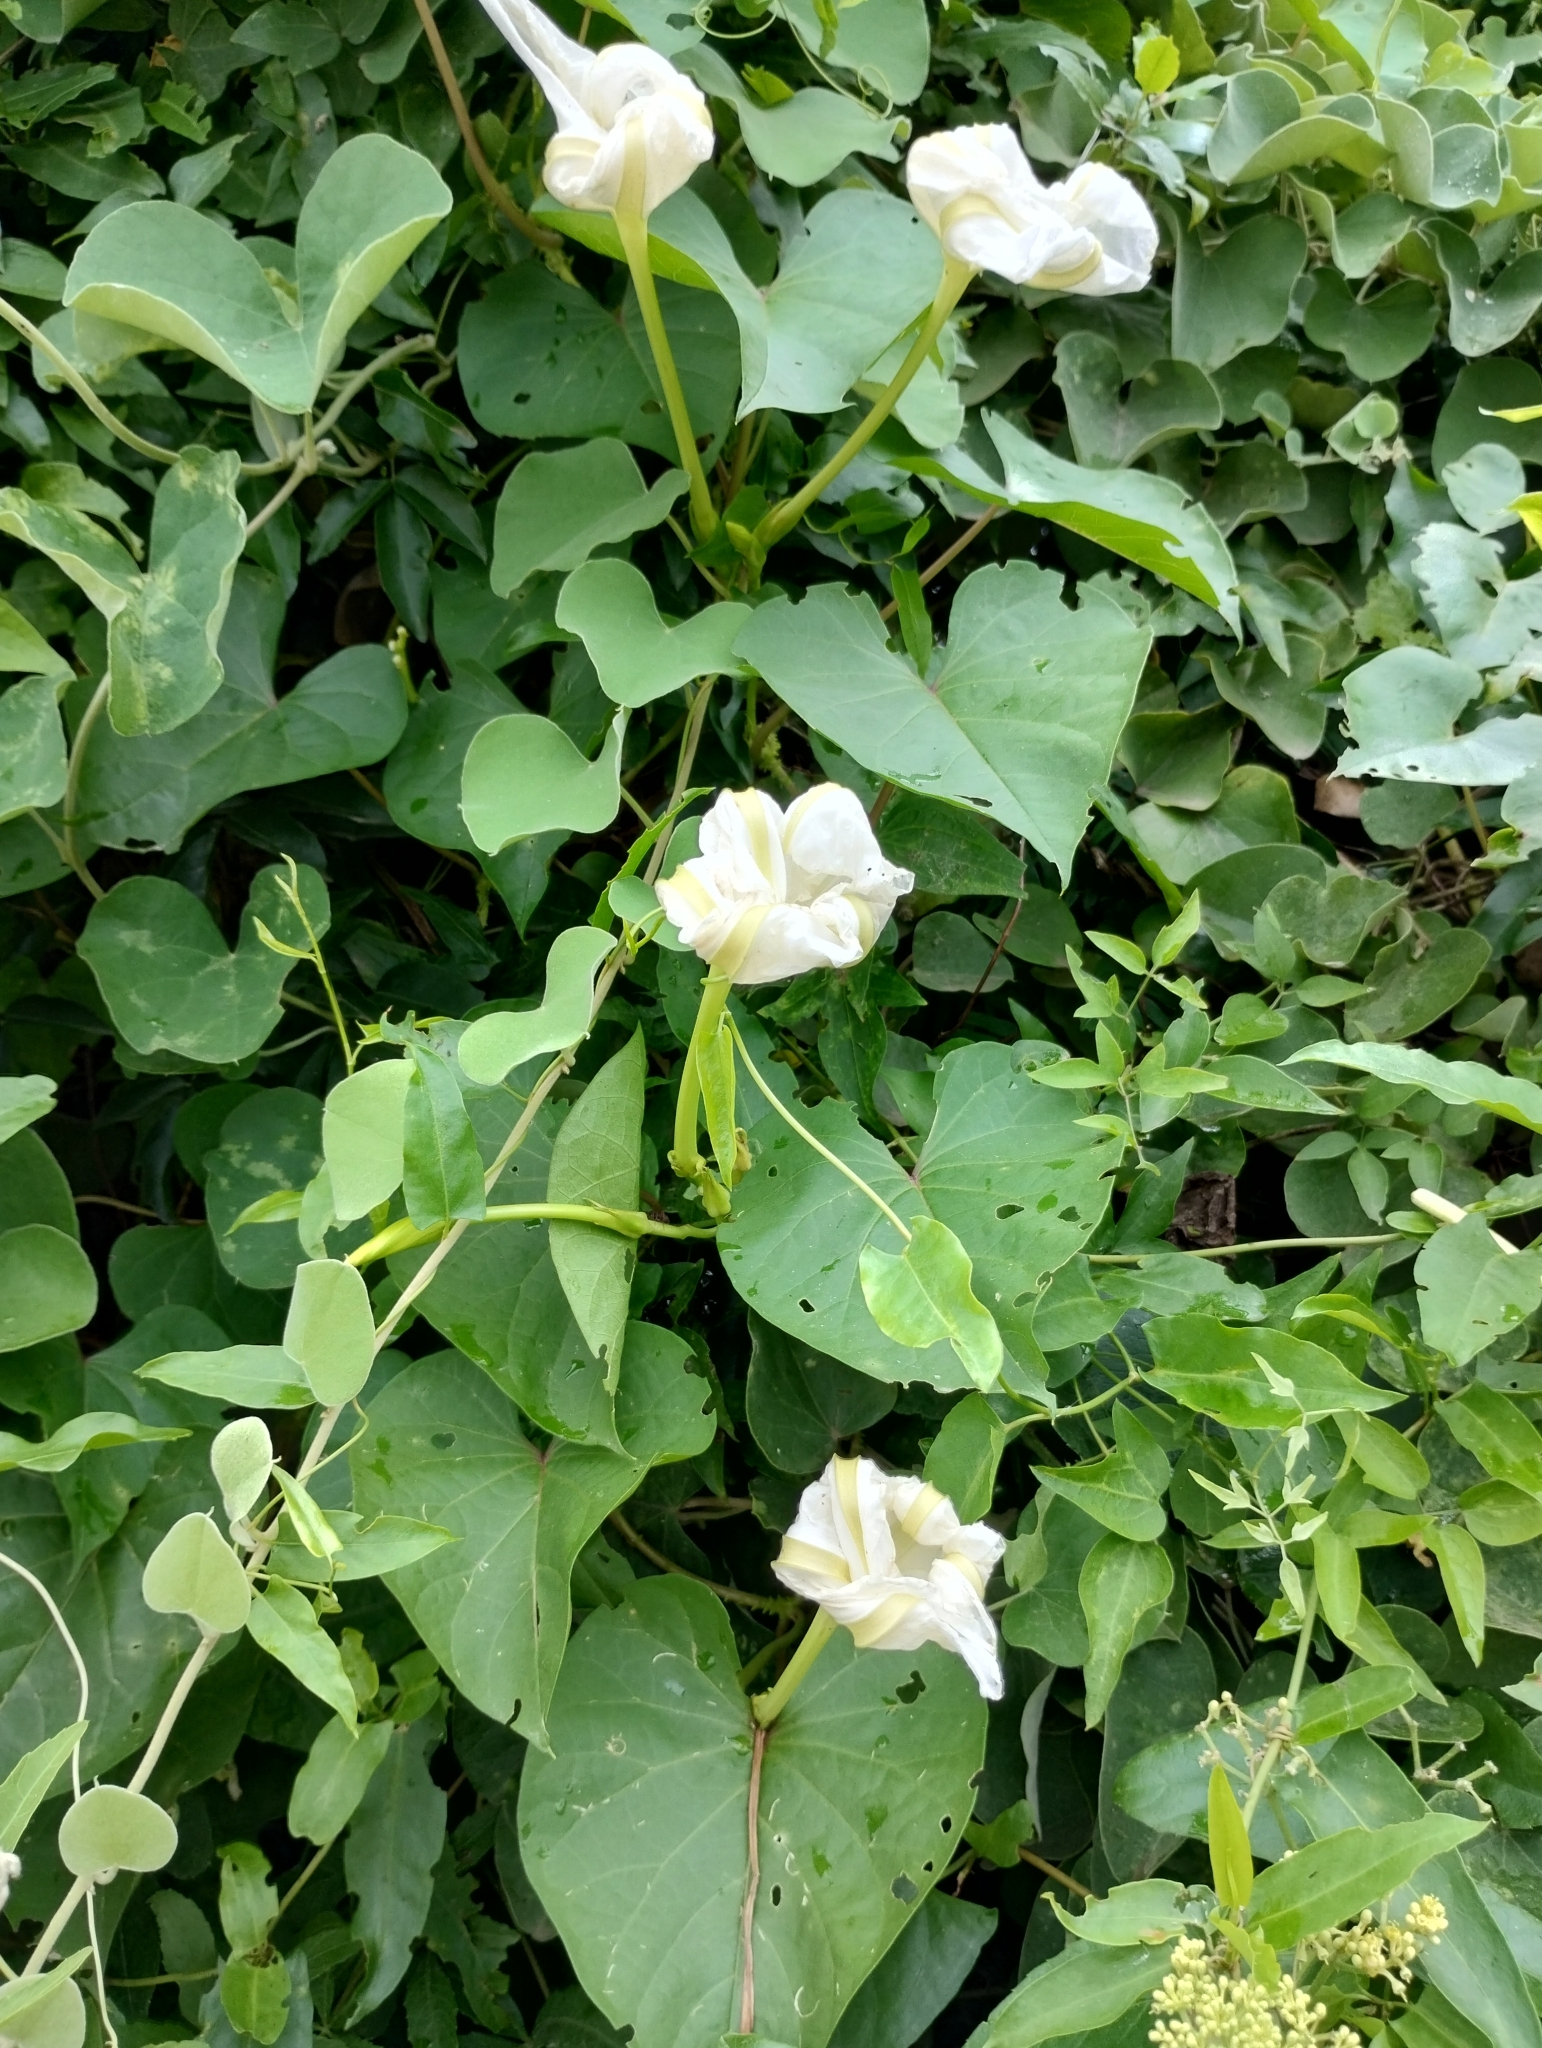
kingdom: Plantae
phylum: Tracheophyta
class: Magnoliopsida
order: Solanales
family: Convolvulaceae
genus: Ipomoea
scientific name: Ipomoea alba
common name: Moonflower
